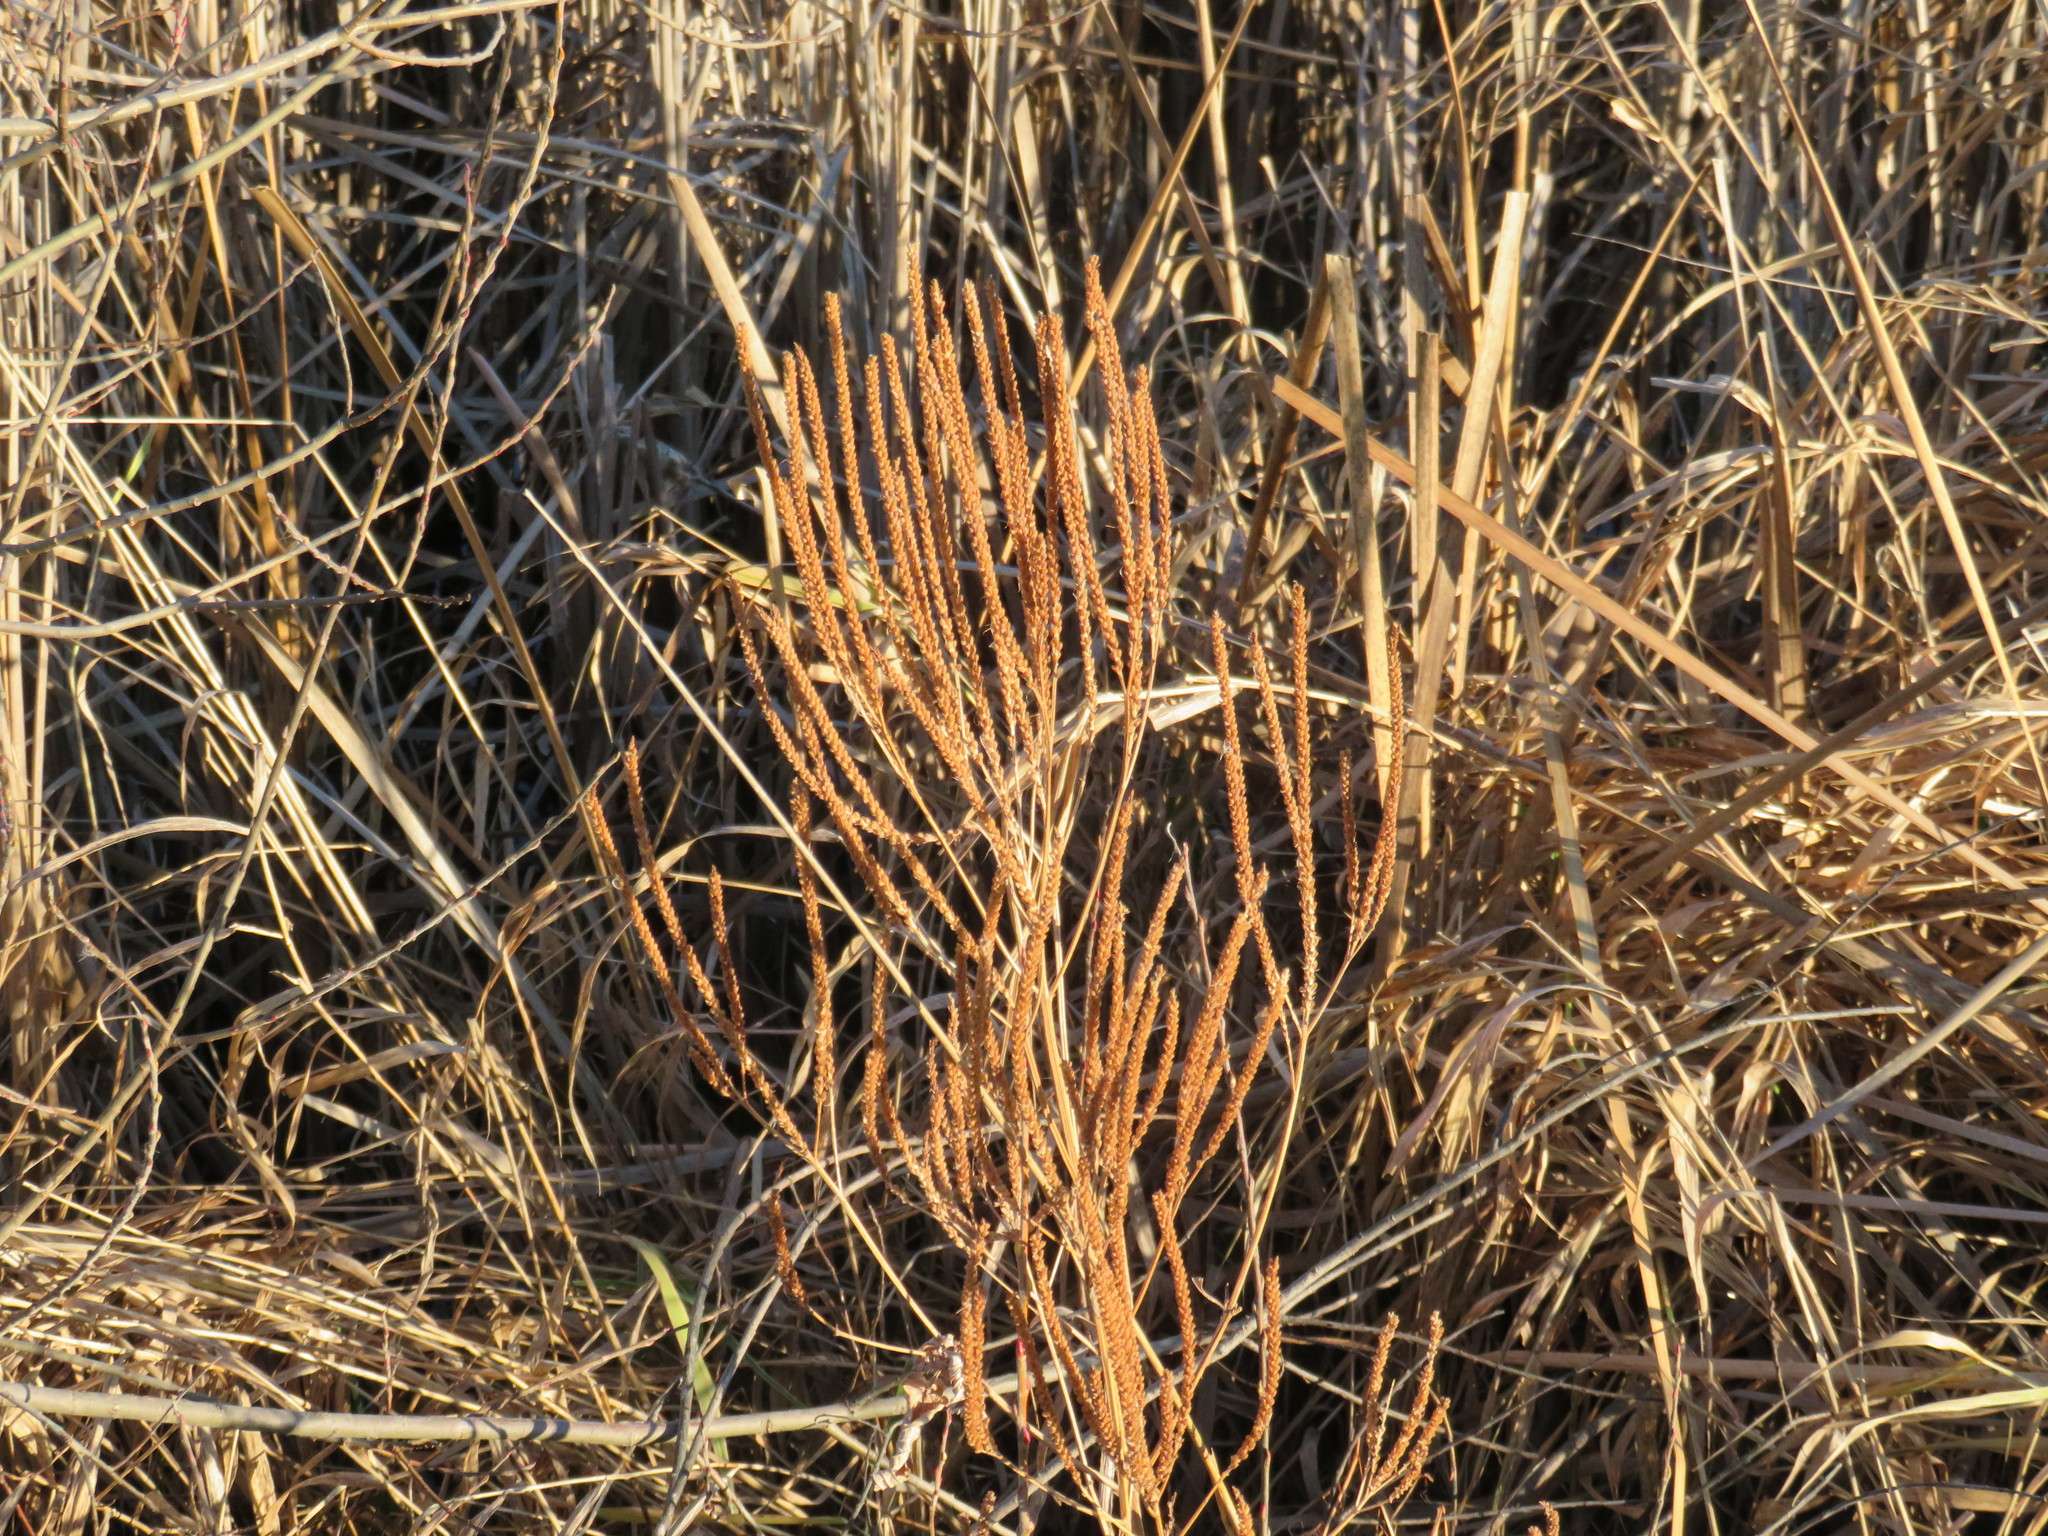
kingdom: Plantae
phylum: Tracheophyta
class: Magnoliopsida
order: Lamiales
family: Verbenaceae
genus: Verbena
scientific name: Verbena hastata
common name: American blue vervain
